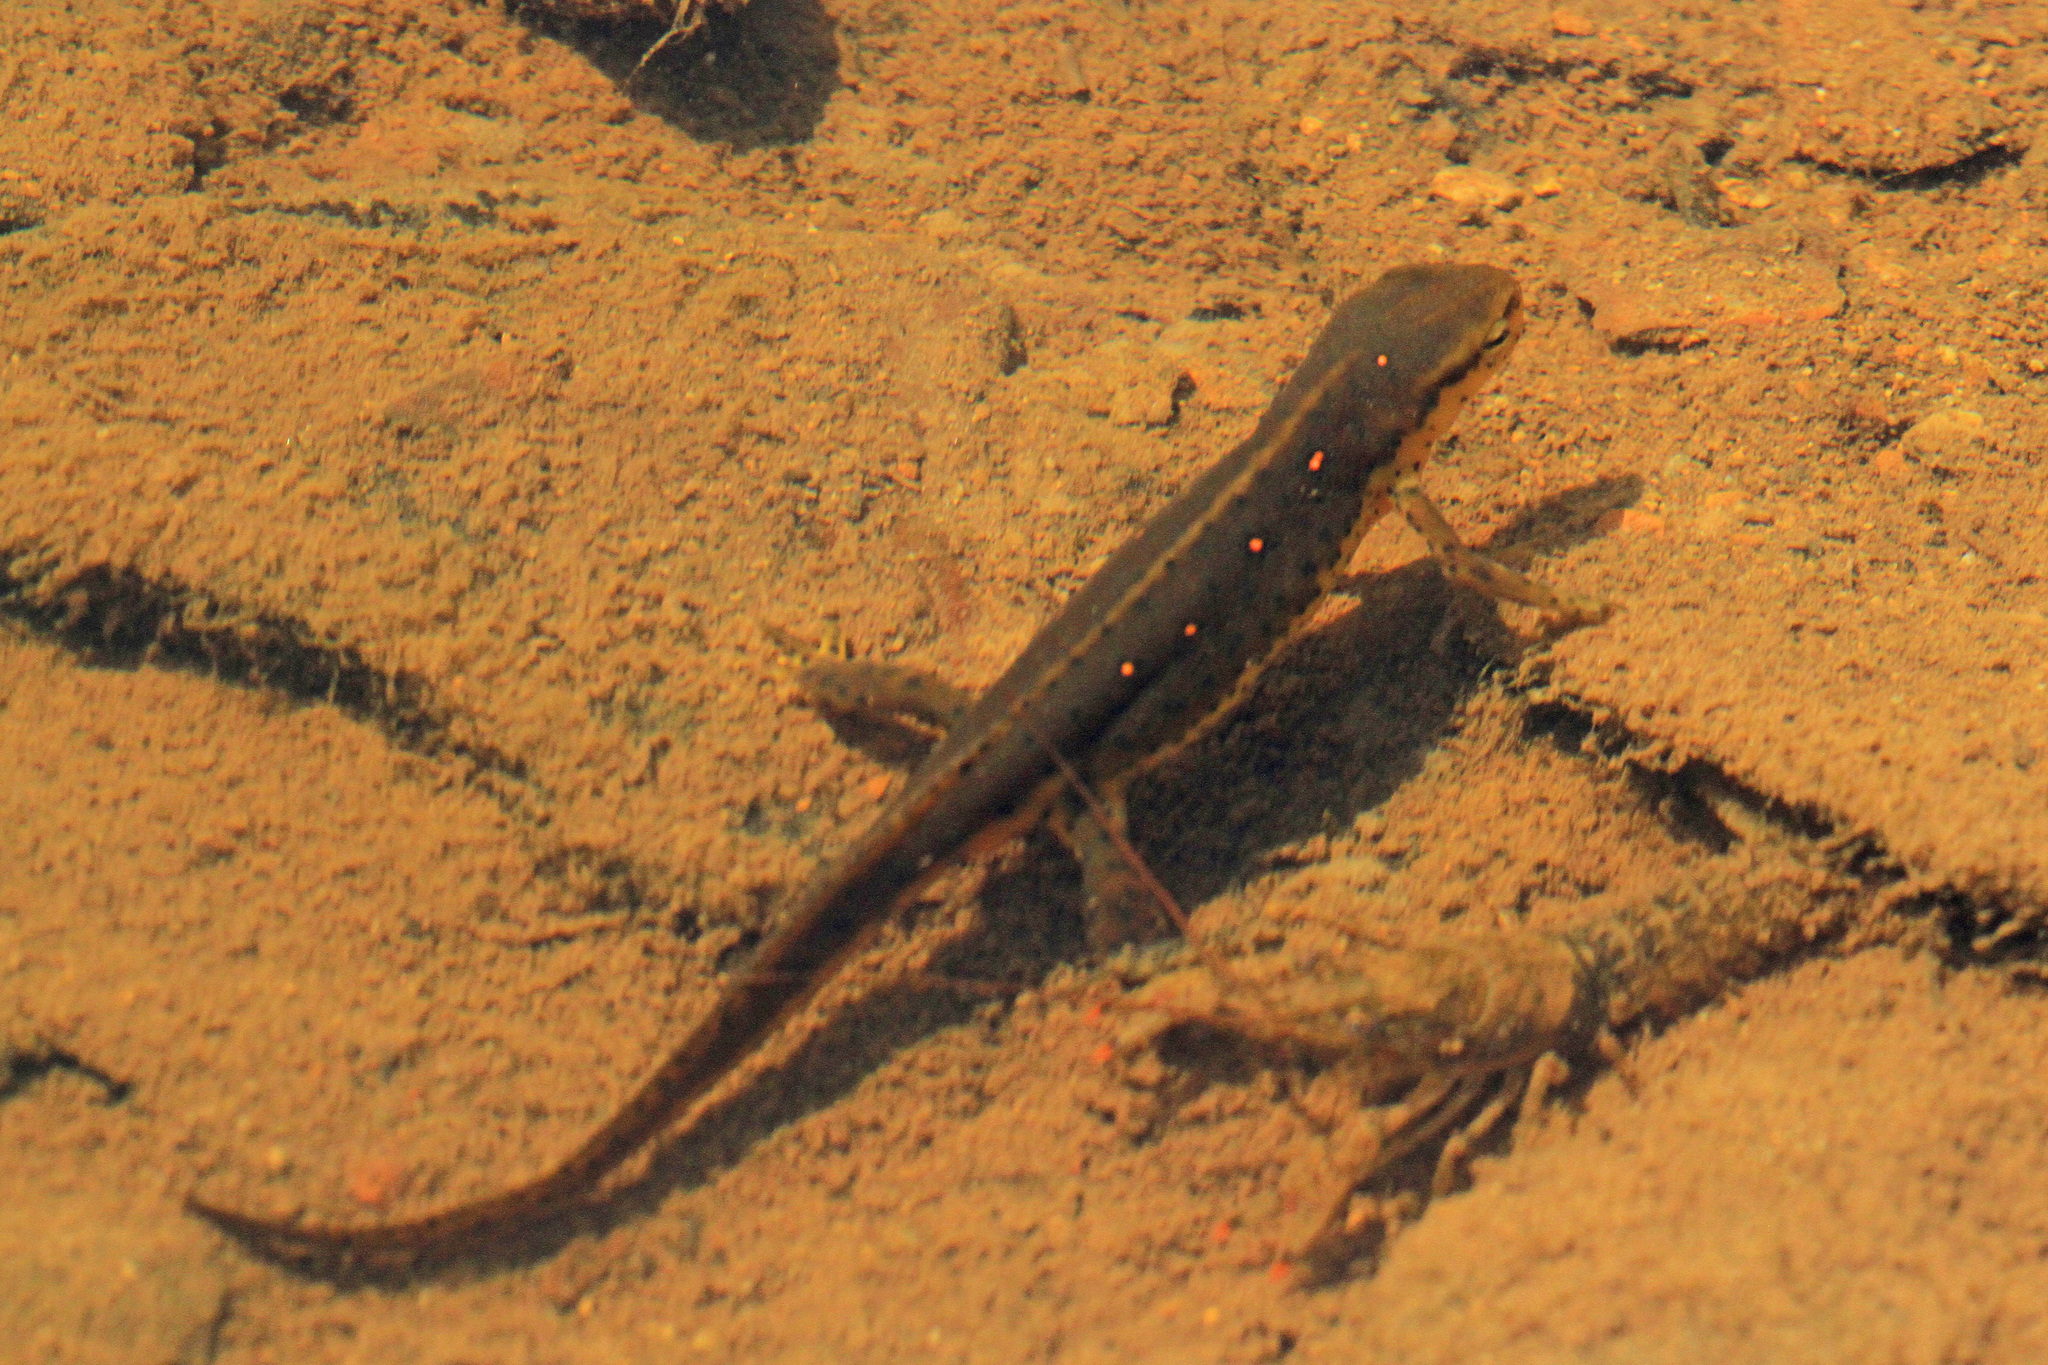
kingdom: Animalia
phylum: Chordata
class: Amphibia
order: Caudata
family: Salamandridae
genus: Notophthalmus
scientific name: Notophthalmus viridescens
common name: Eastern newt
